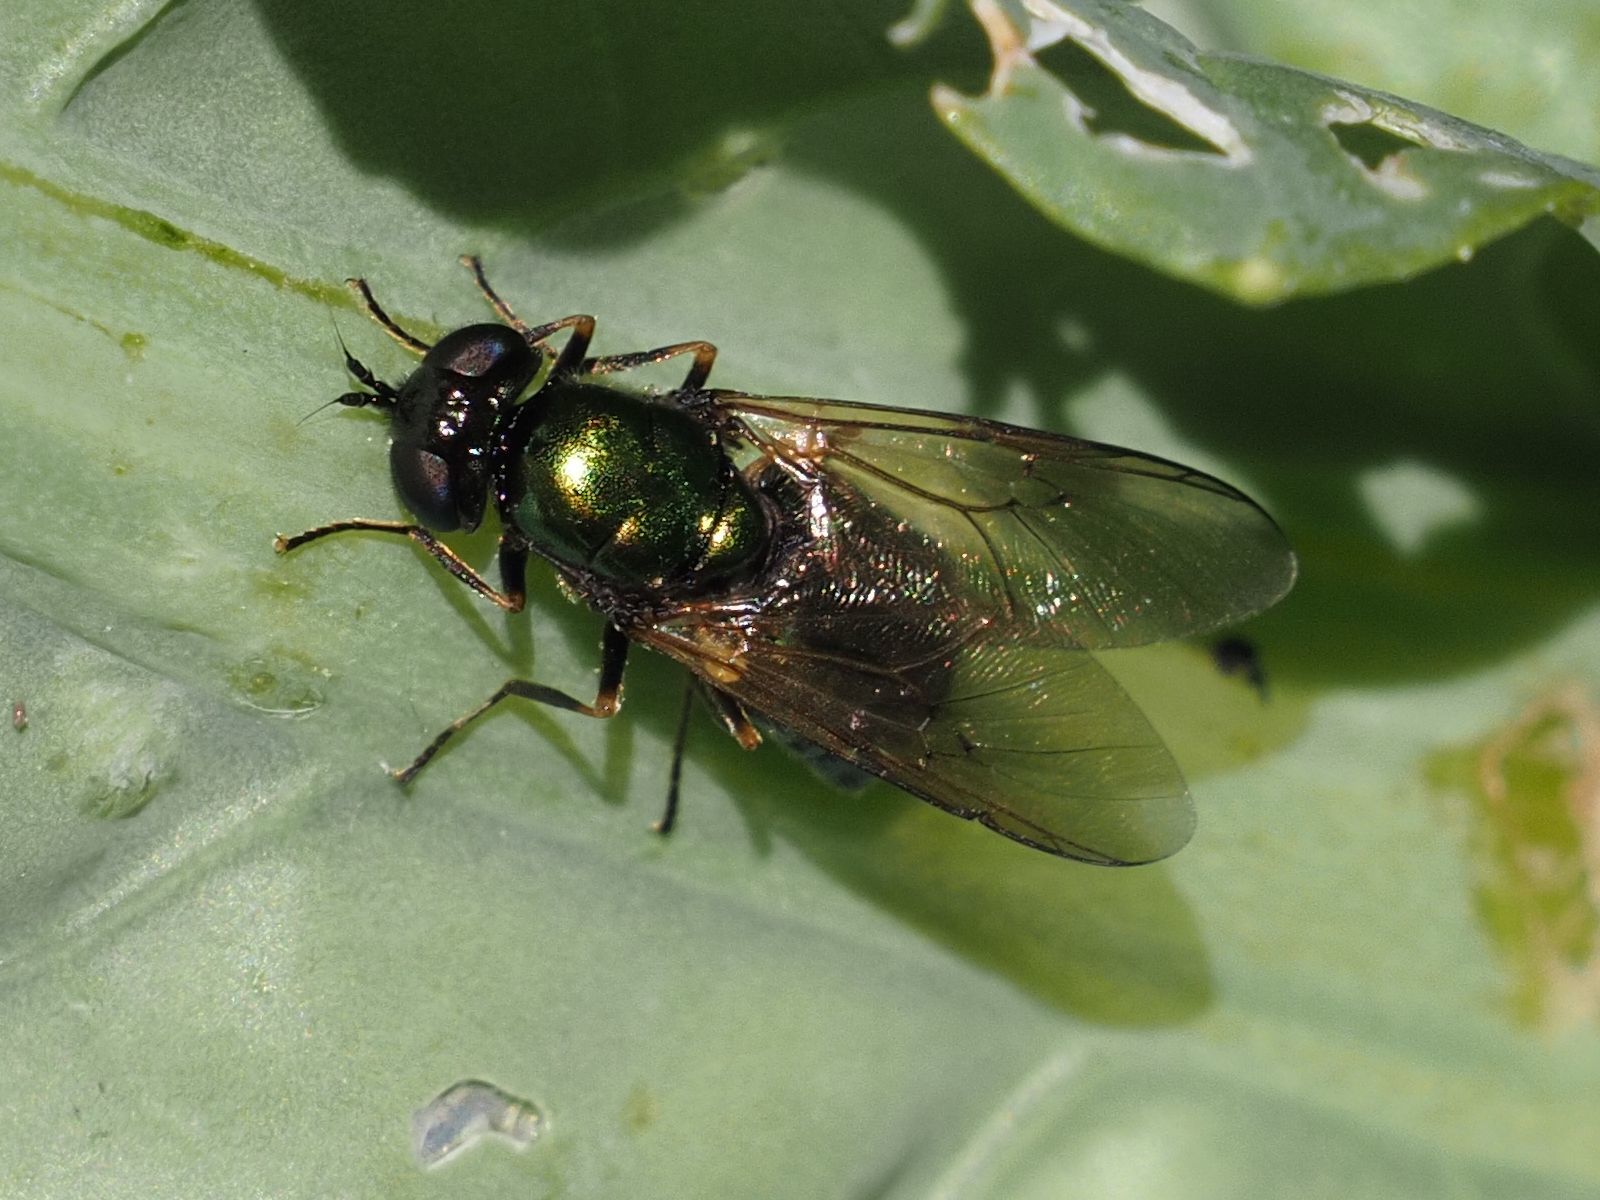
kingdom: Animalia
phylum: Arthropoda
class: Insecta
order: Diptera
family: Stratiomyidae
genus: Chloromyia
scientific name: Chloromyia formosa
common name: Soldier fly
